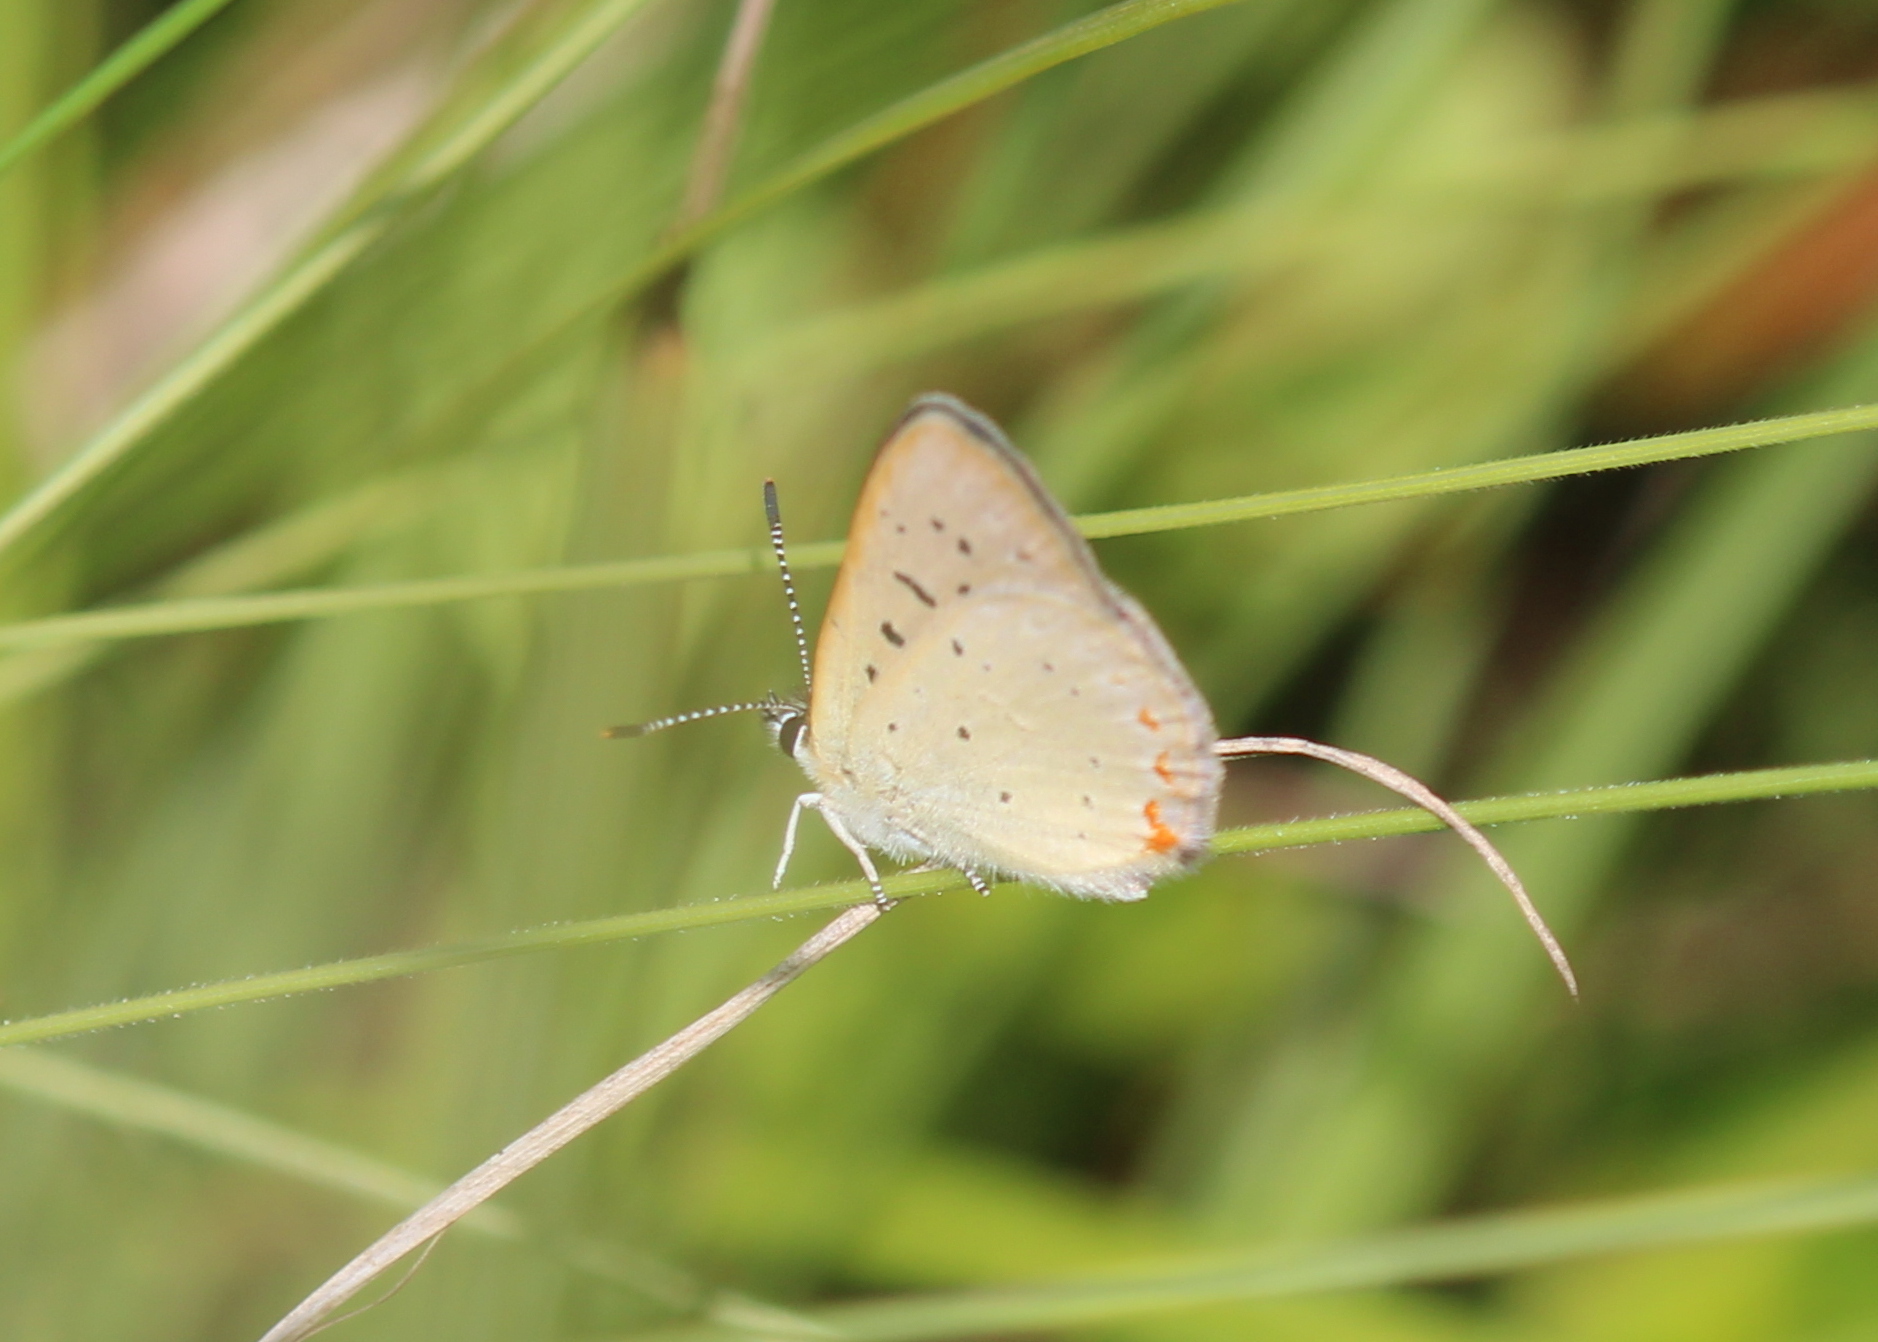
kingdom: Animalia
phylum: Arthropoda
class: Insecta
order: Lepidoptera
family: Lycaenidae
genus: Tharsalea
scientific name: Tharsalea epixanthe
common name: Bog copper
